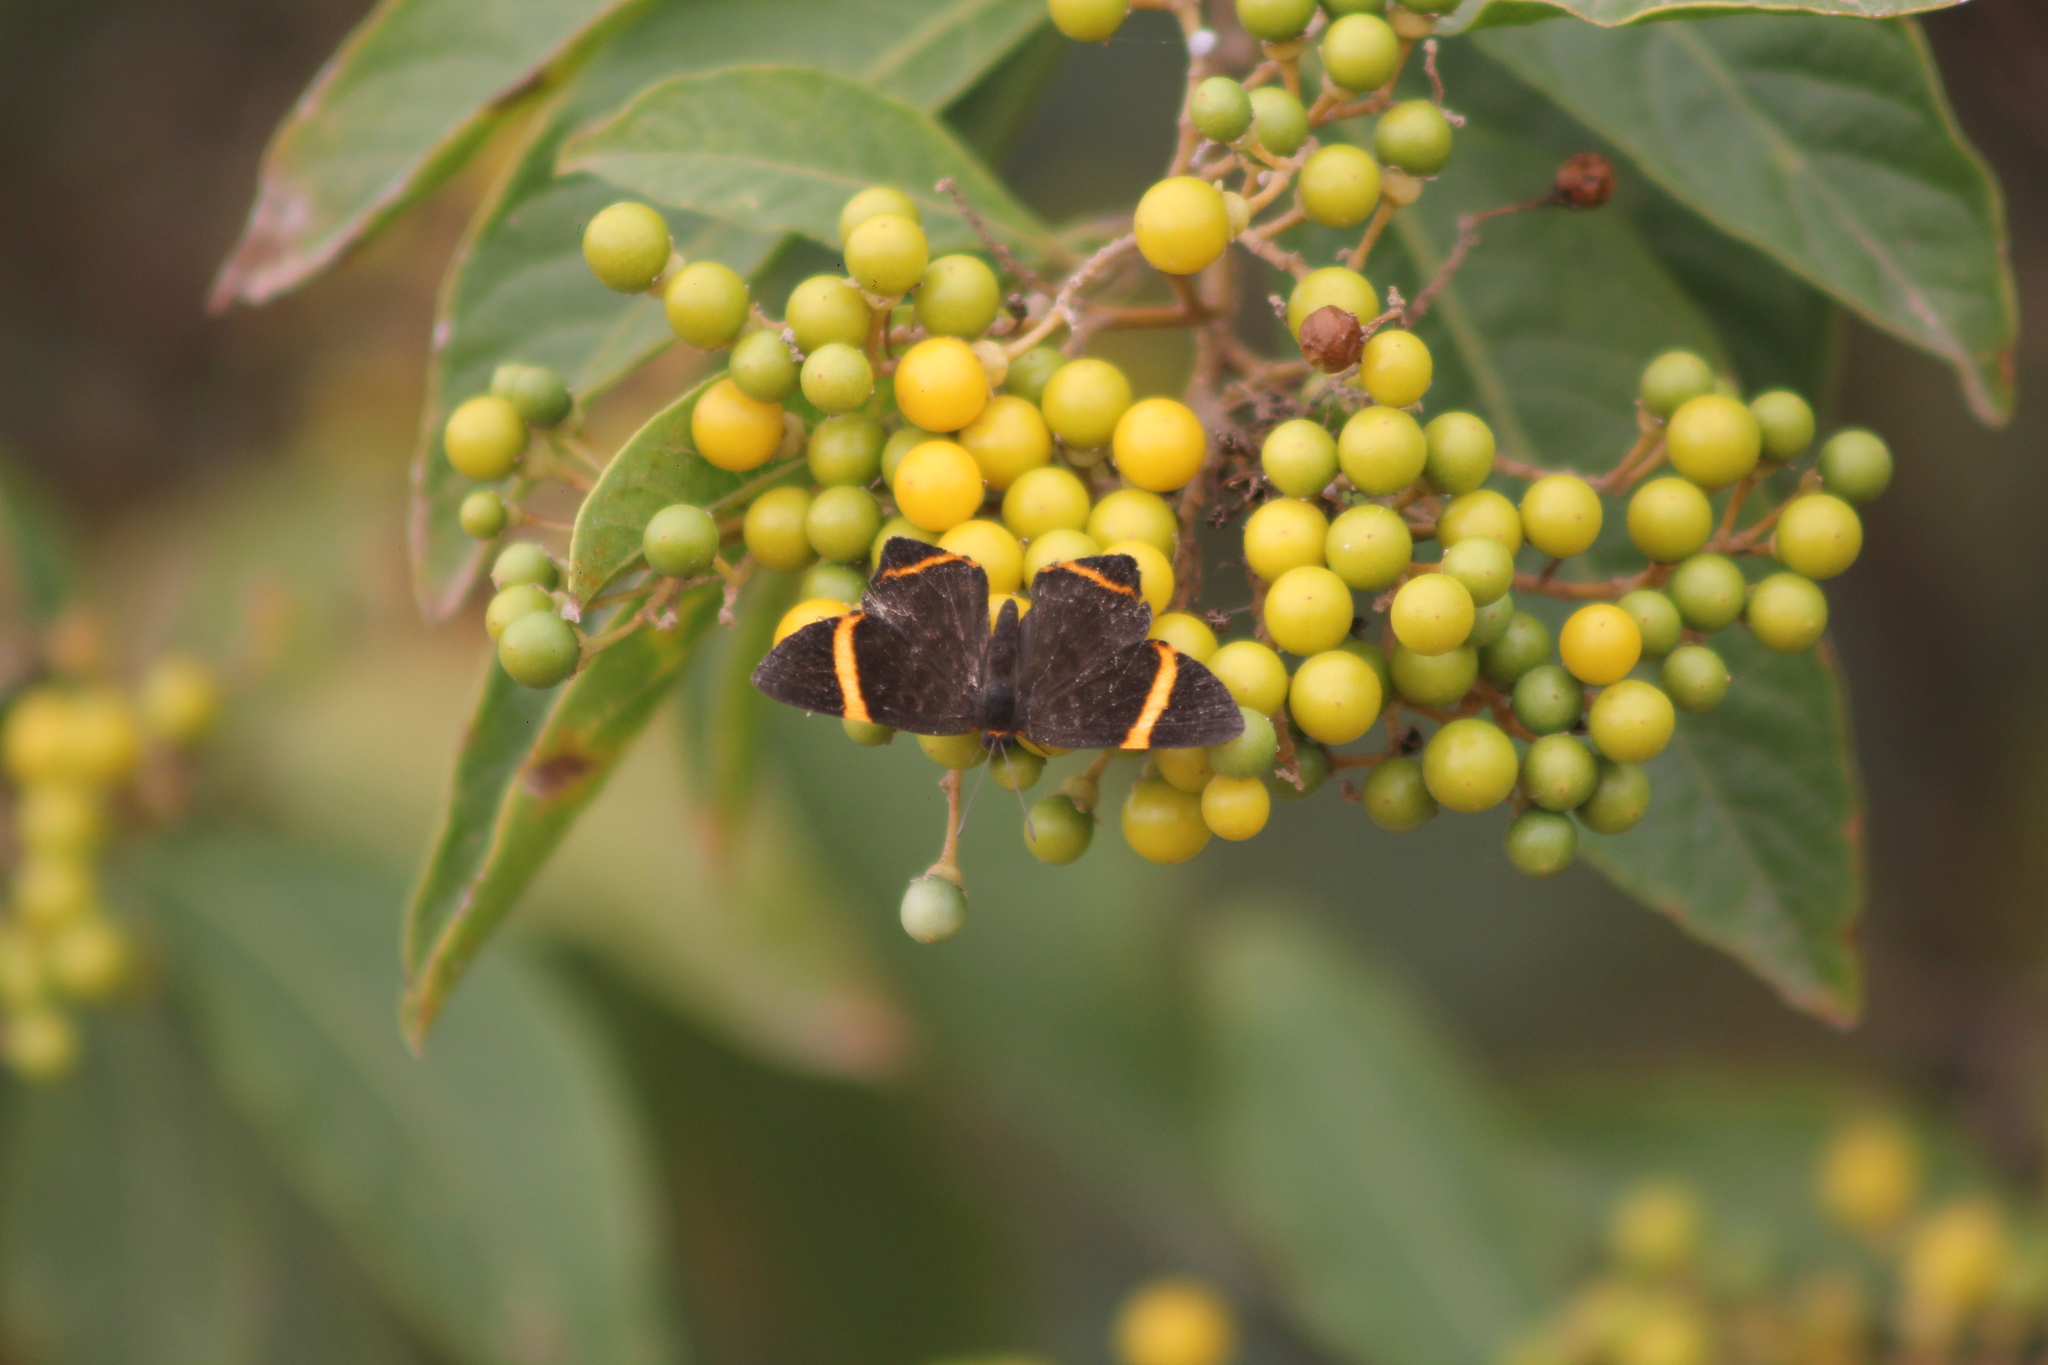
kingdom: Animalia
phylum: Arthropoda
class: Insecta
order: Lepidoptera
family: Riodinidae
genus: Riodina
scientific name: Riodina lysippoides
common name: Little dancer metalmark
